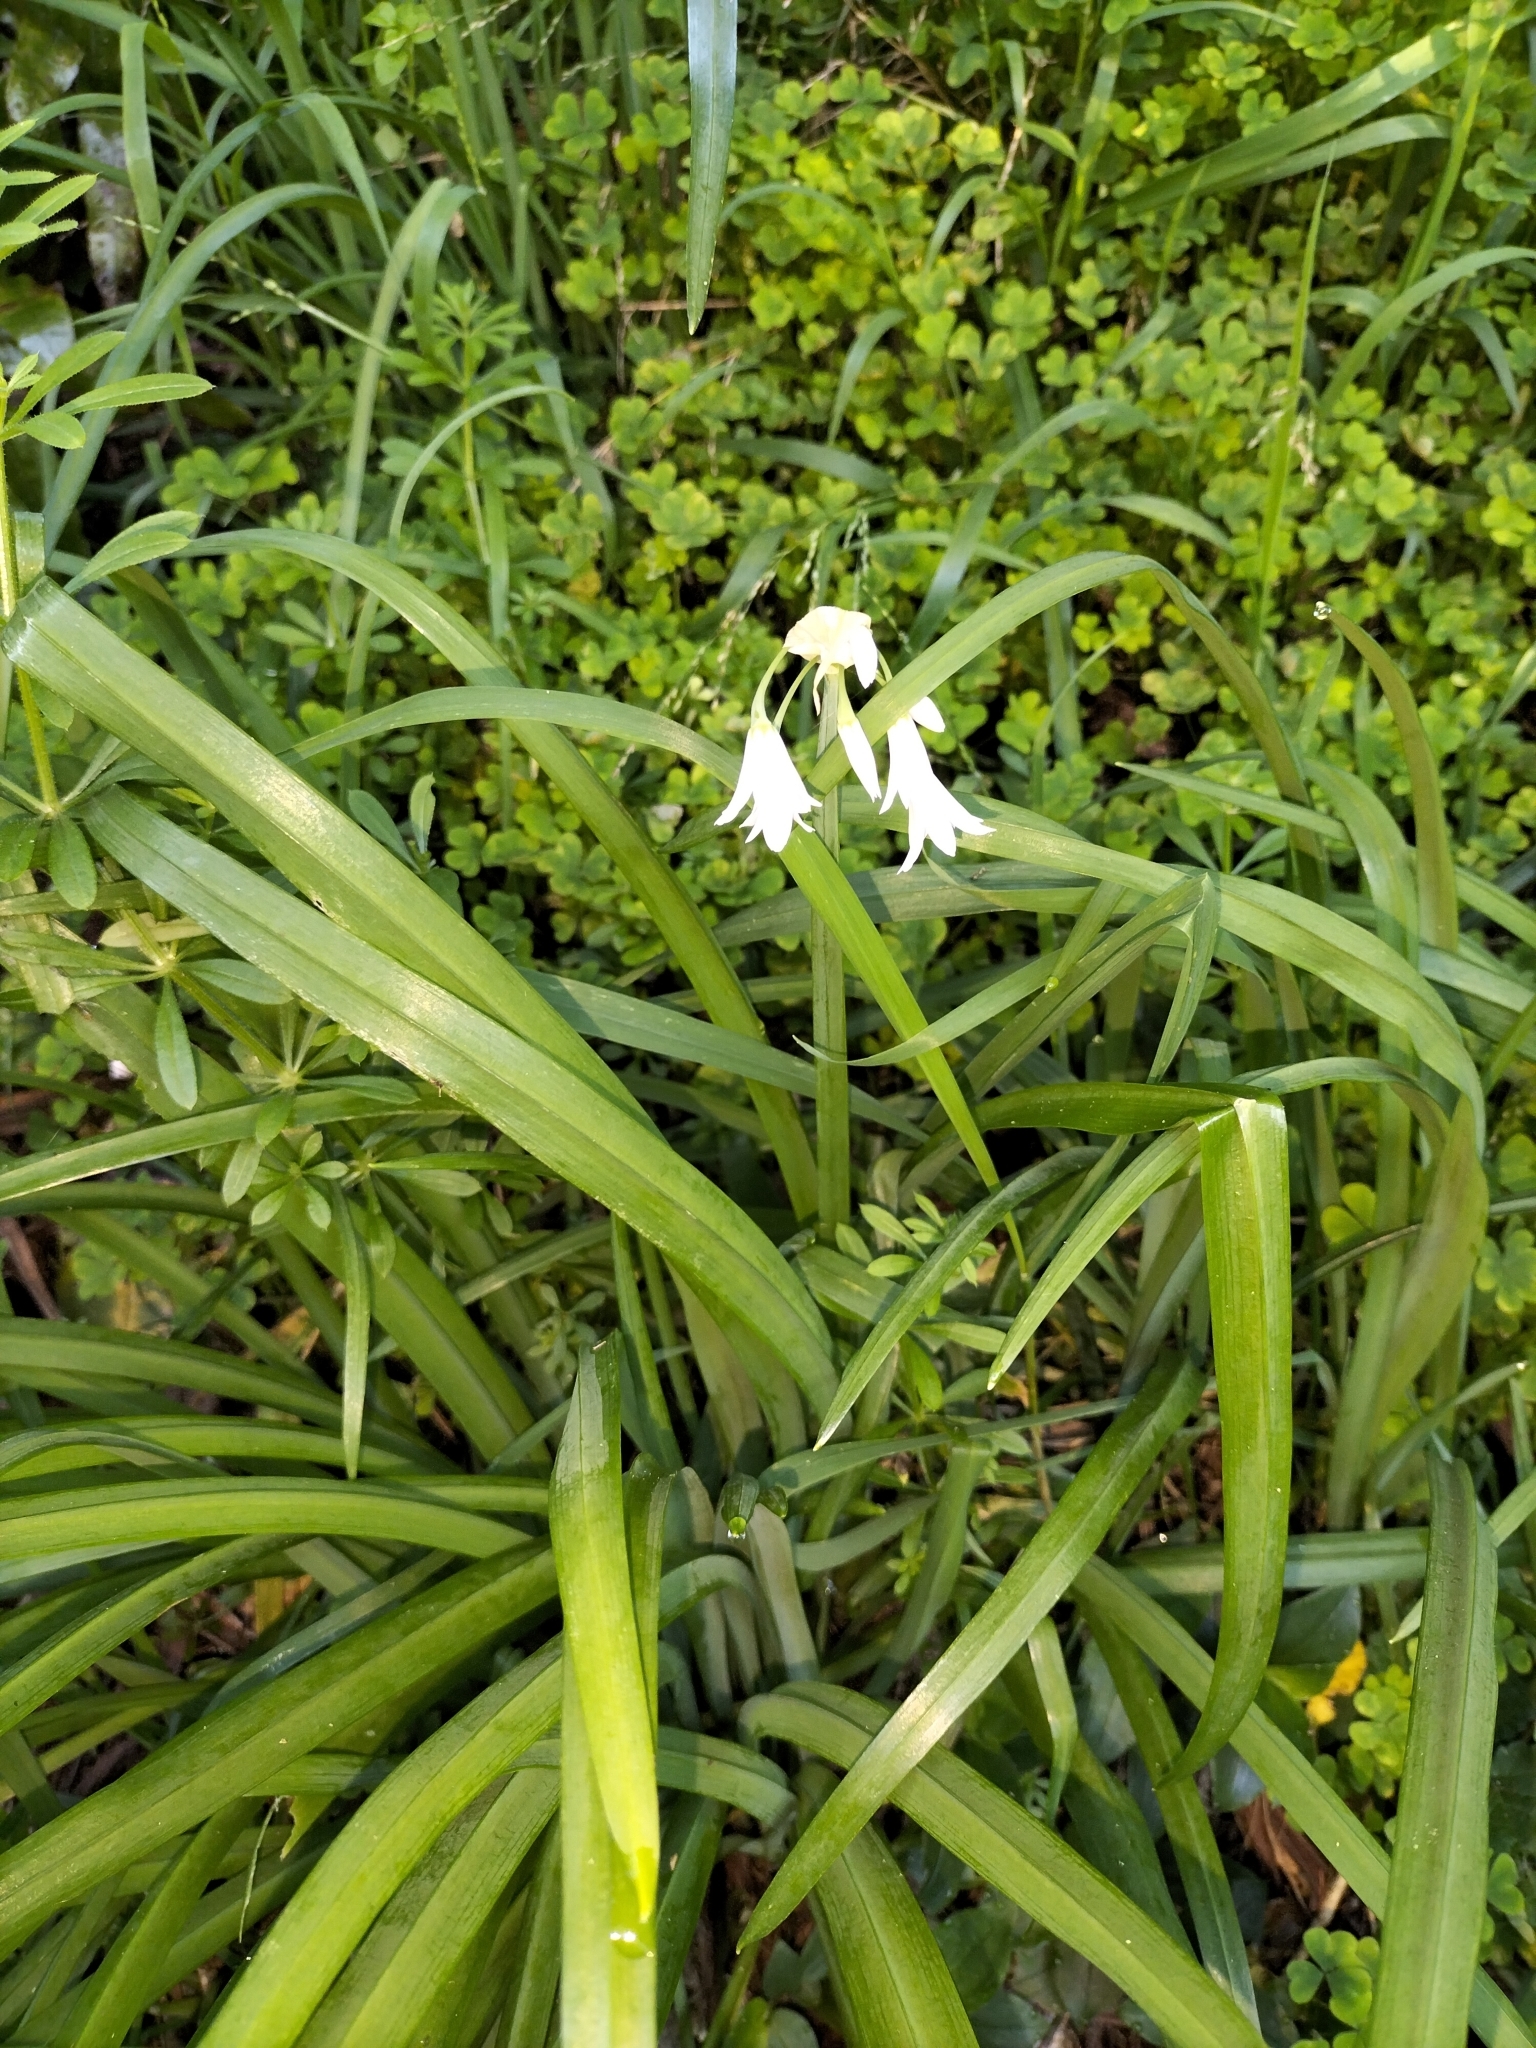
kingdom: Plantae
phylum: Tracheophyta
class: Liliopsida
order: Asparagales
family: Amaryllidaceae
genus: Allium
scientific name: Allium triquetrum
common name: Three-cornered garlic
